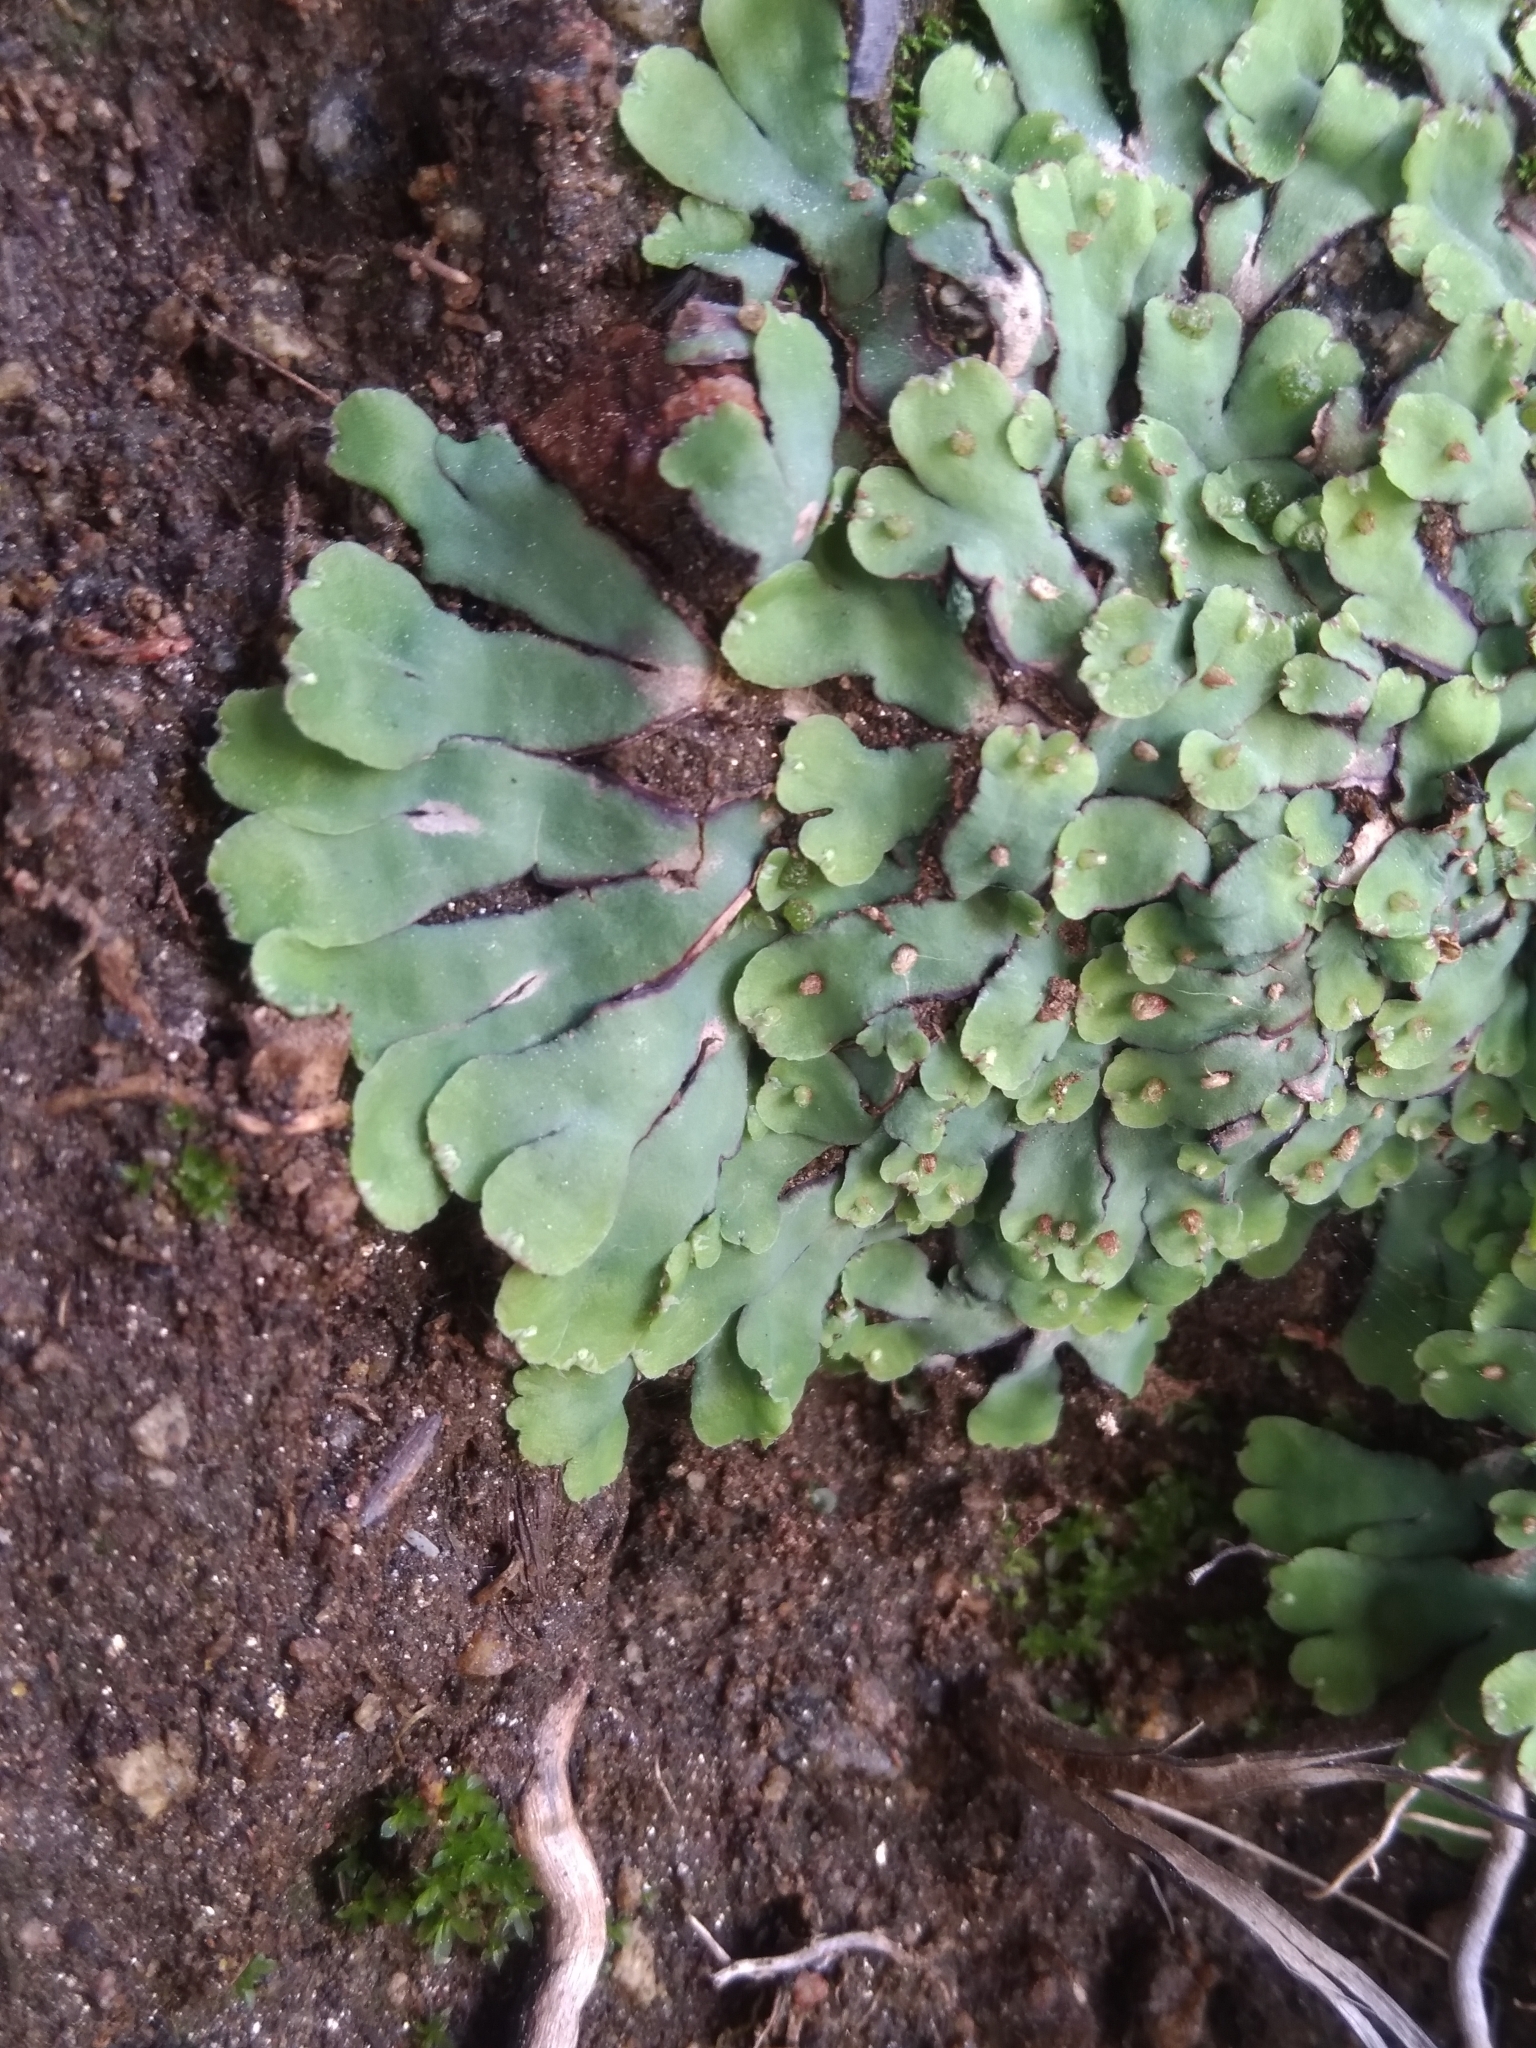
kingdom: Plantae
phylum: Marchantiophyta
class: Marchantiopsida
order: Marchantiales
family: Aytoniaceae
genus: Plagiochasma
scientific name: Plagiochasma rupestre
